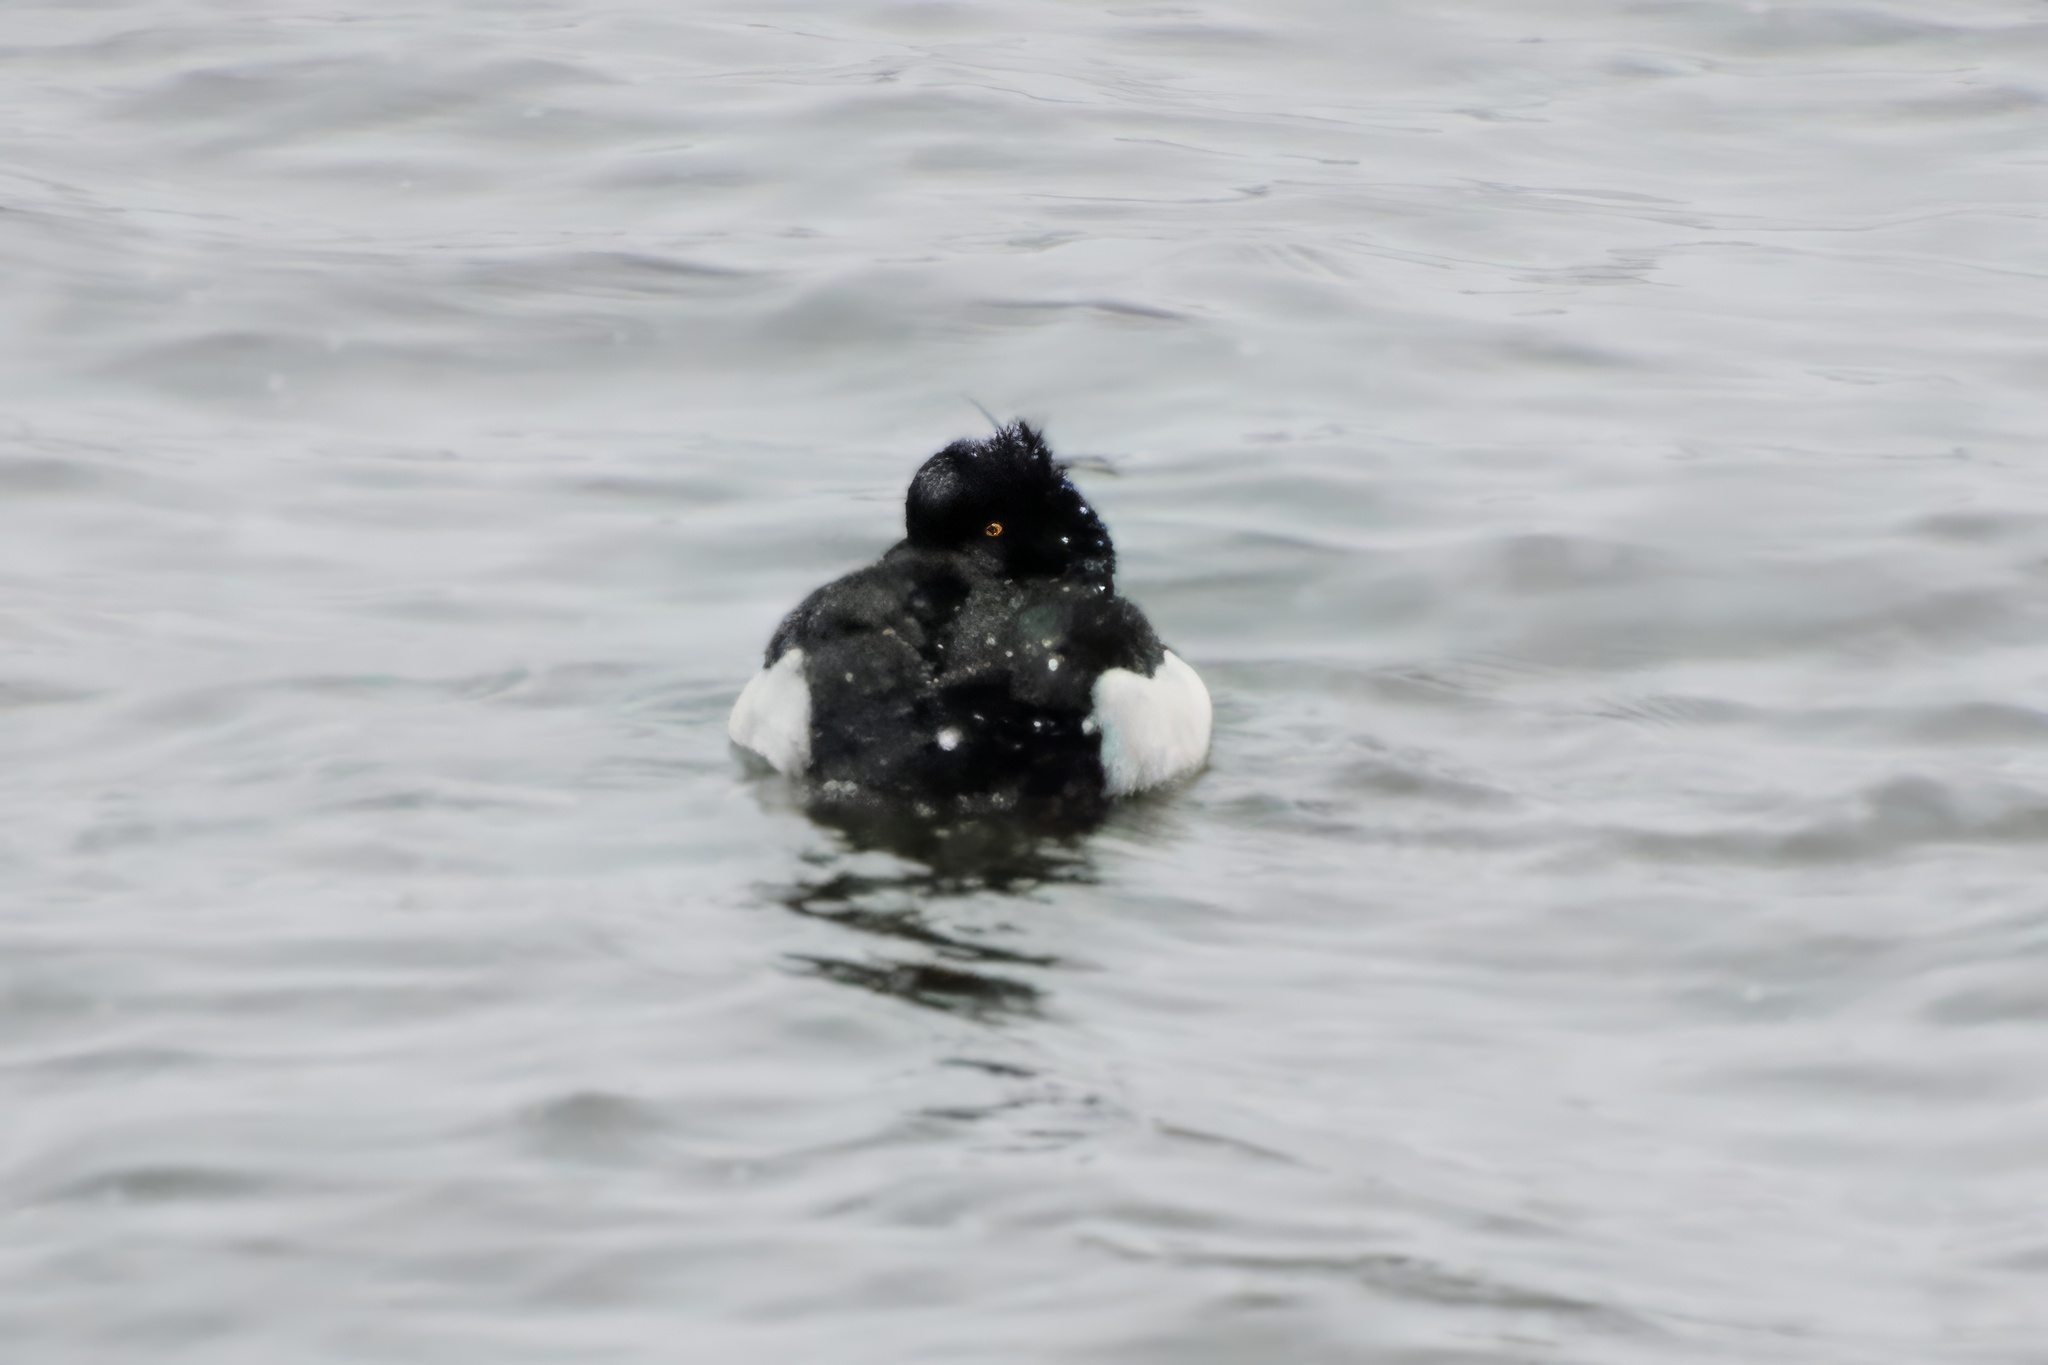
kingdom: Animalia
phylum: Chordata
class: Aves
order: Anseriformes
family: Anatidae
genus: Aythya
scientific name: Aythya fuligula
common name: Tufted duck
